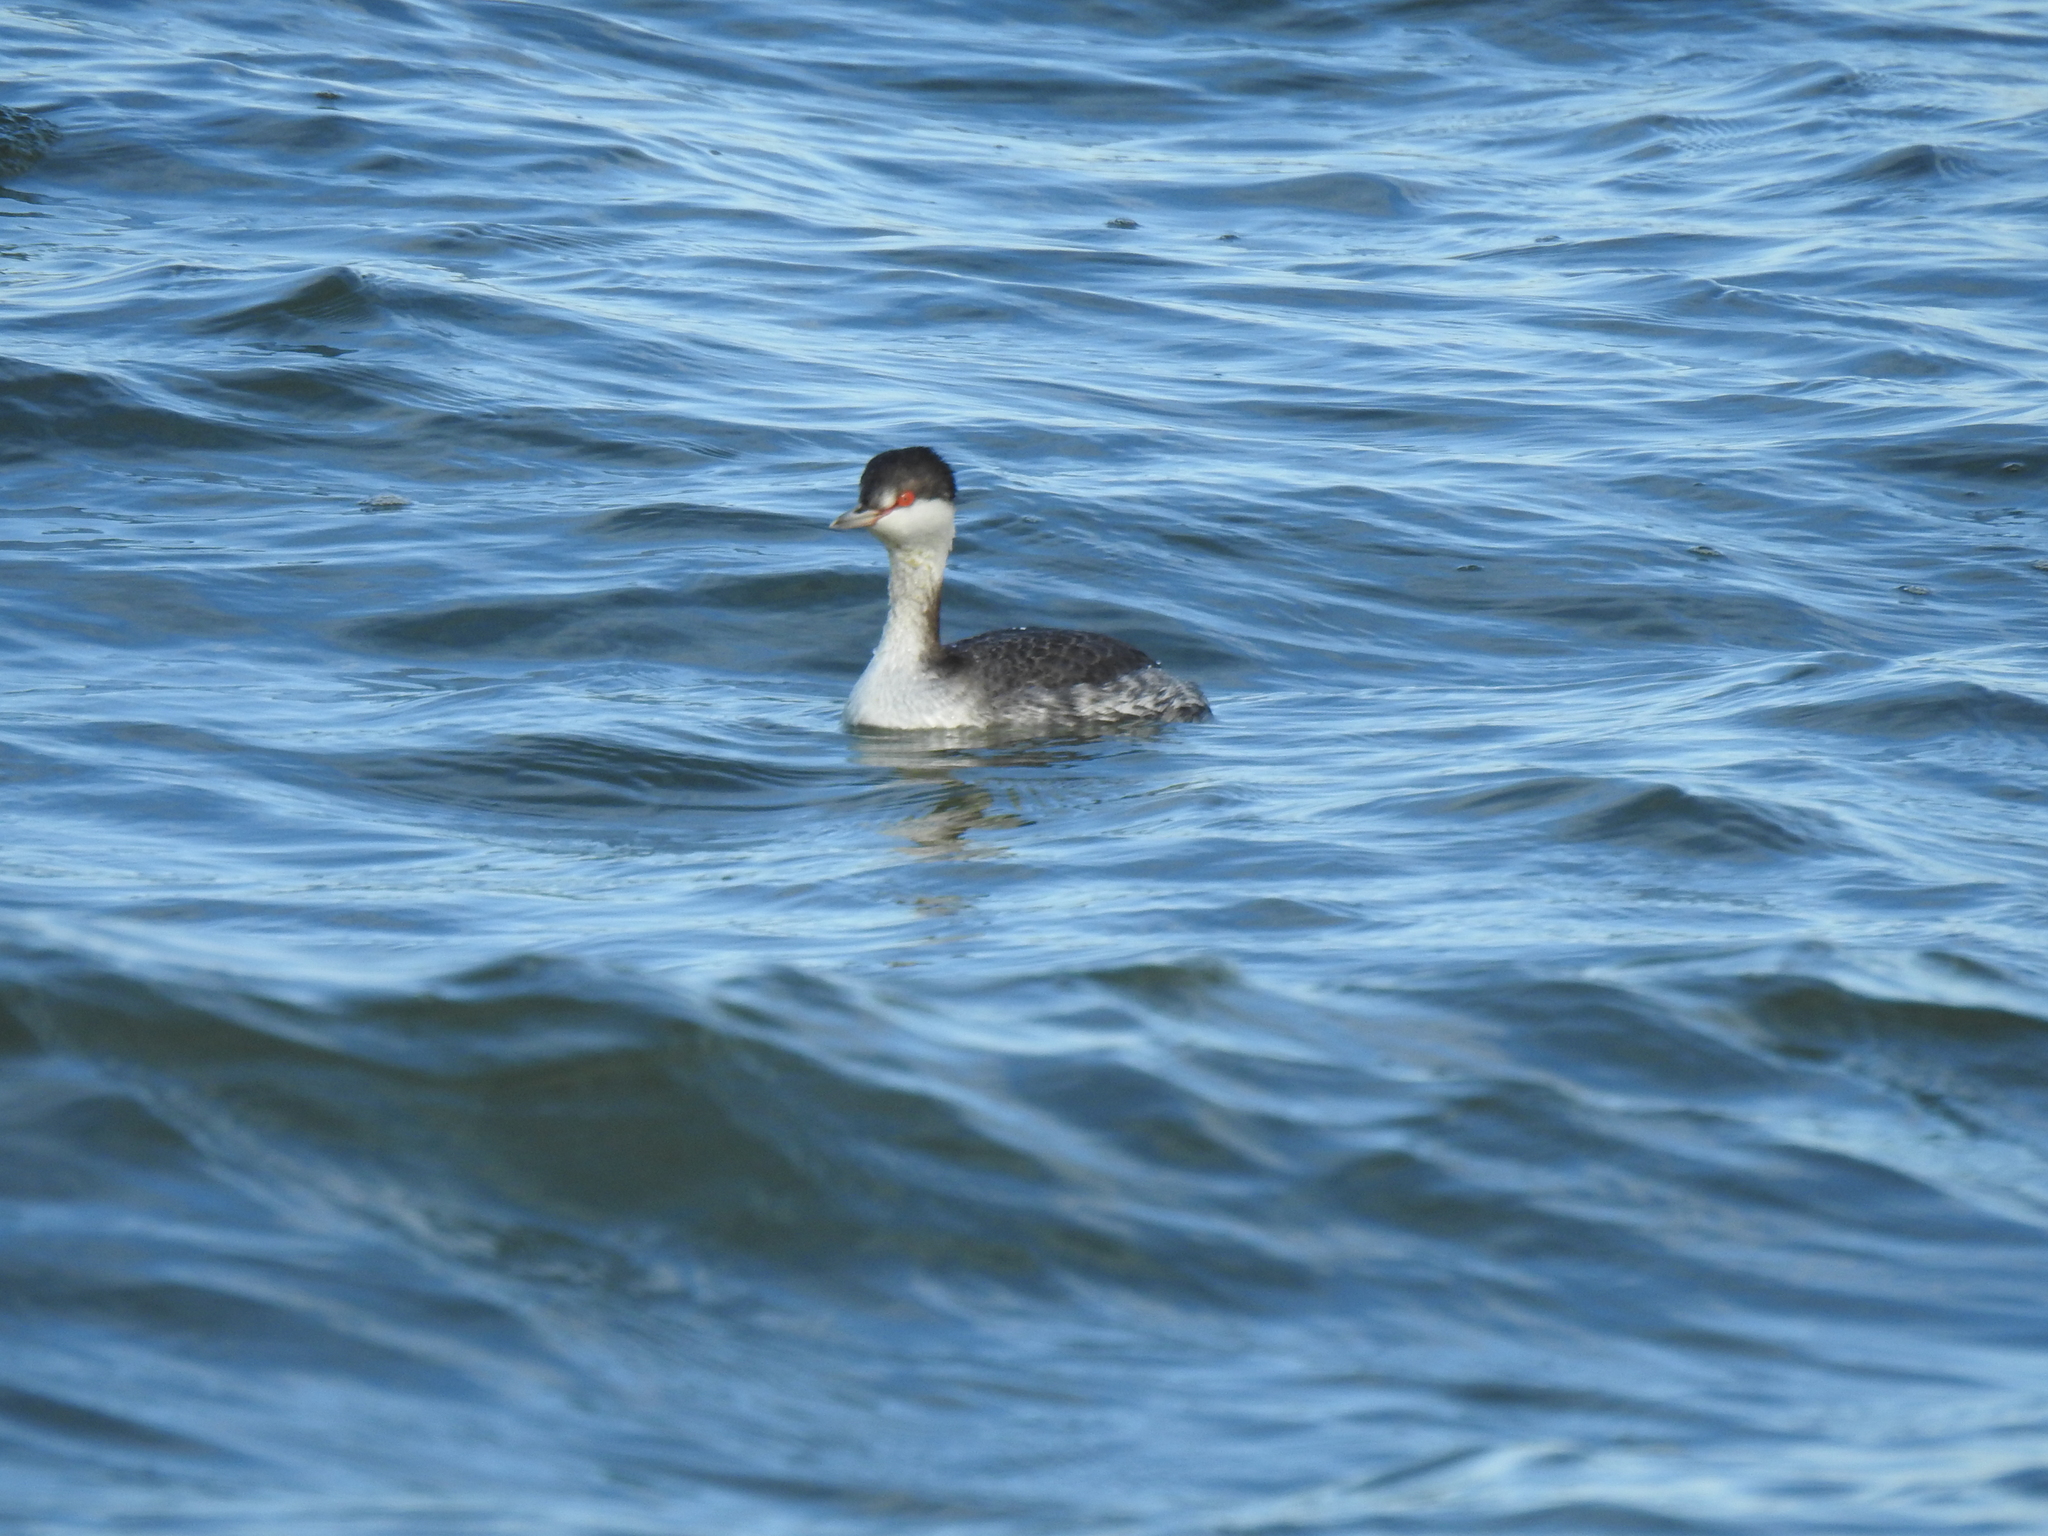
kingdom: Animalia
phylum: Chordata
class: Aves
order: Podicipediformes
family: Podicipedidae
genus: Podiceps
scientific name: Podiceps auritus
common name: Horned grebe
